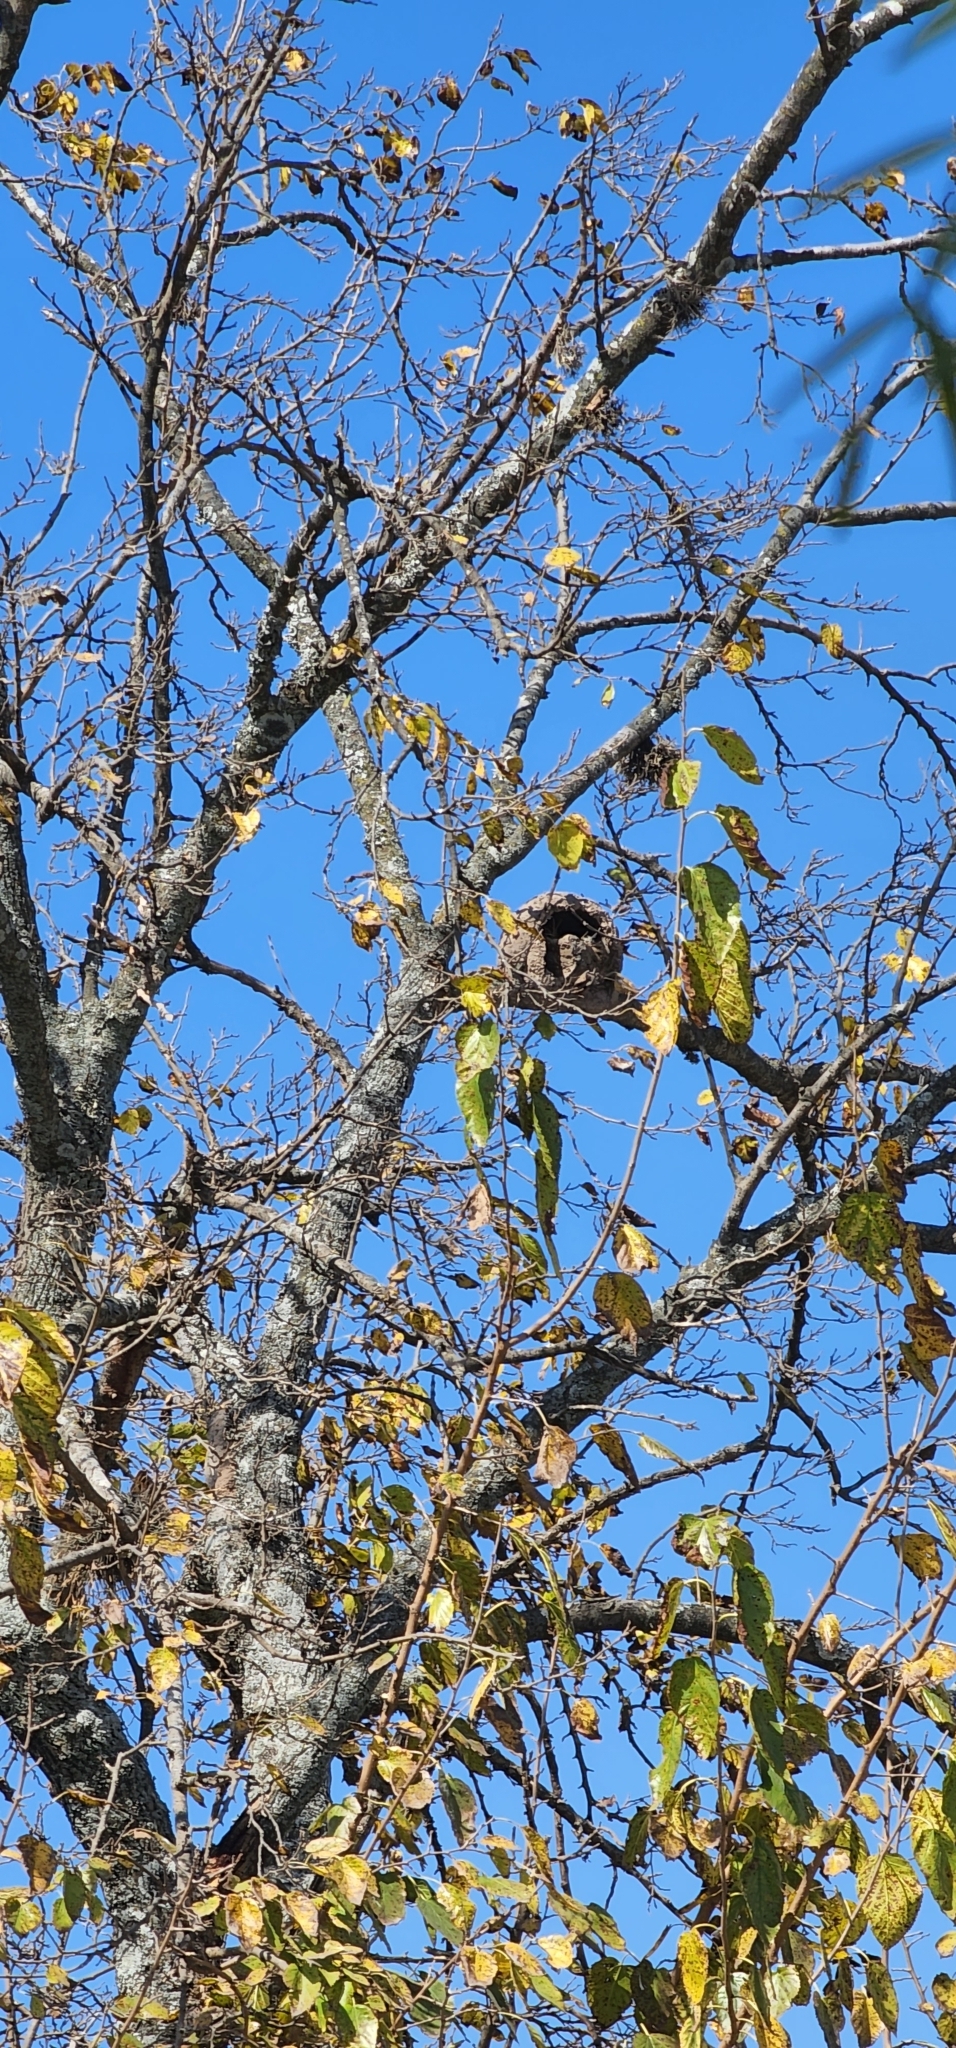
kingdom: Animalia
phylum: Chordata
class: Aves
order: Passeriformes
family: Furnariidae
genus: Furnarius
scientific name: Furnarius rufus
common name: Rufous hornero
